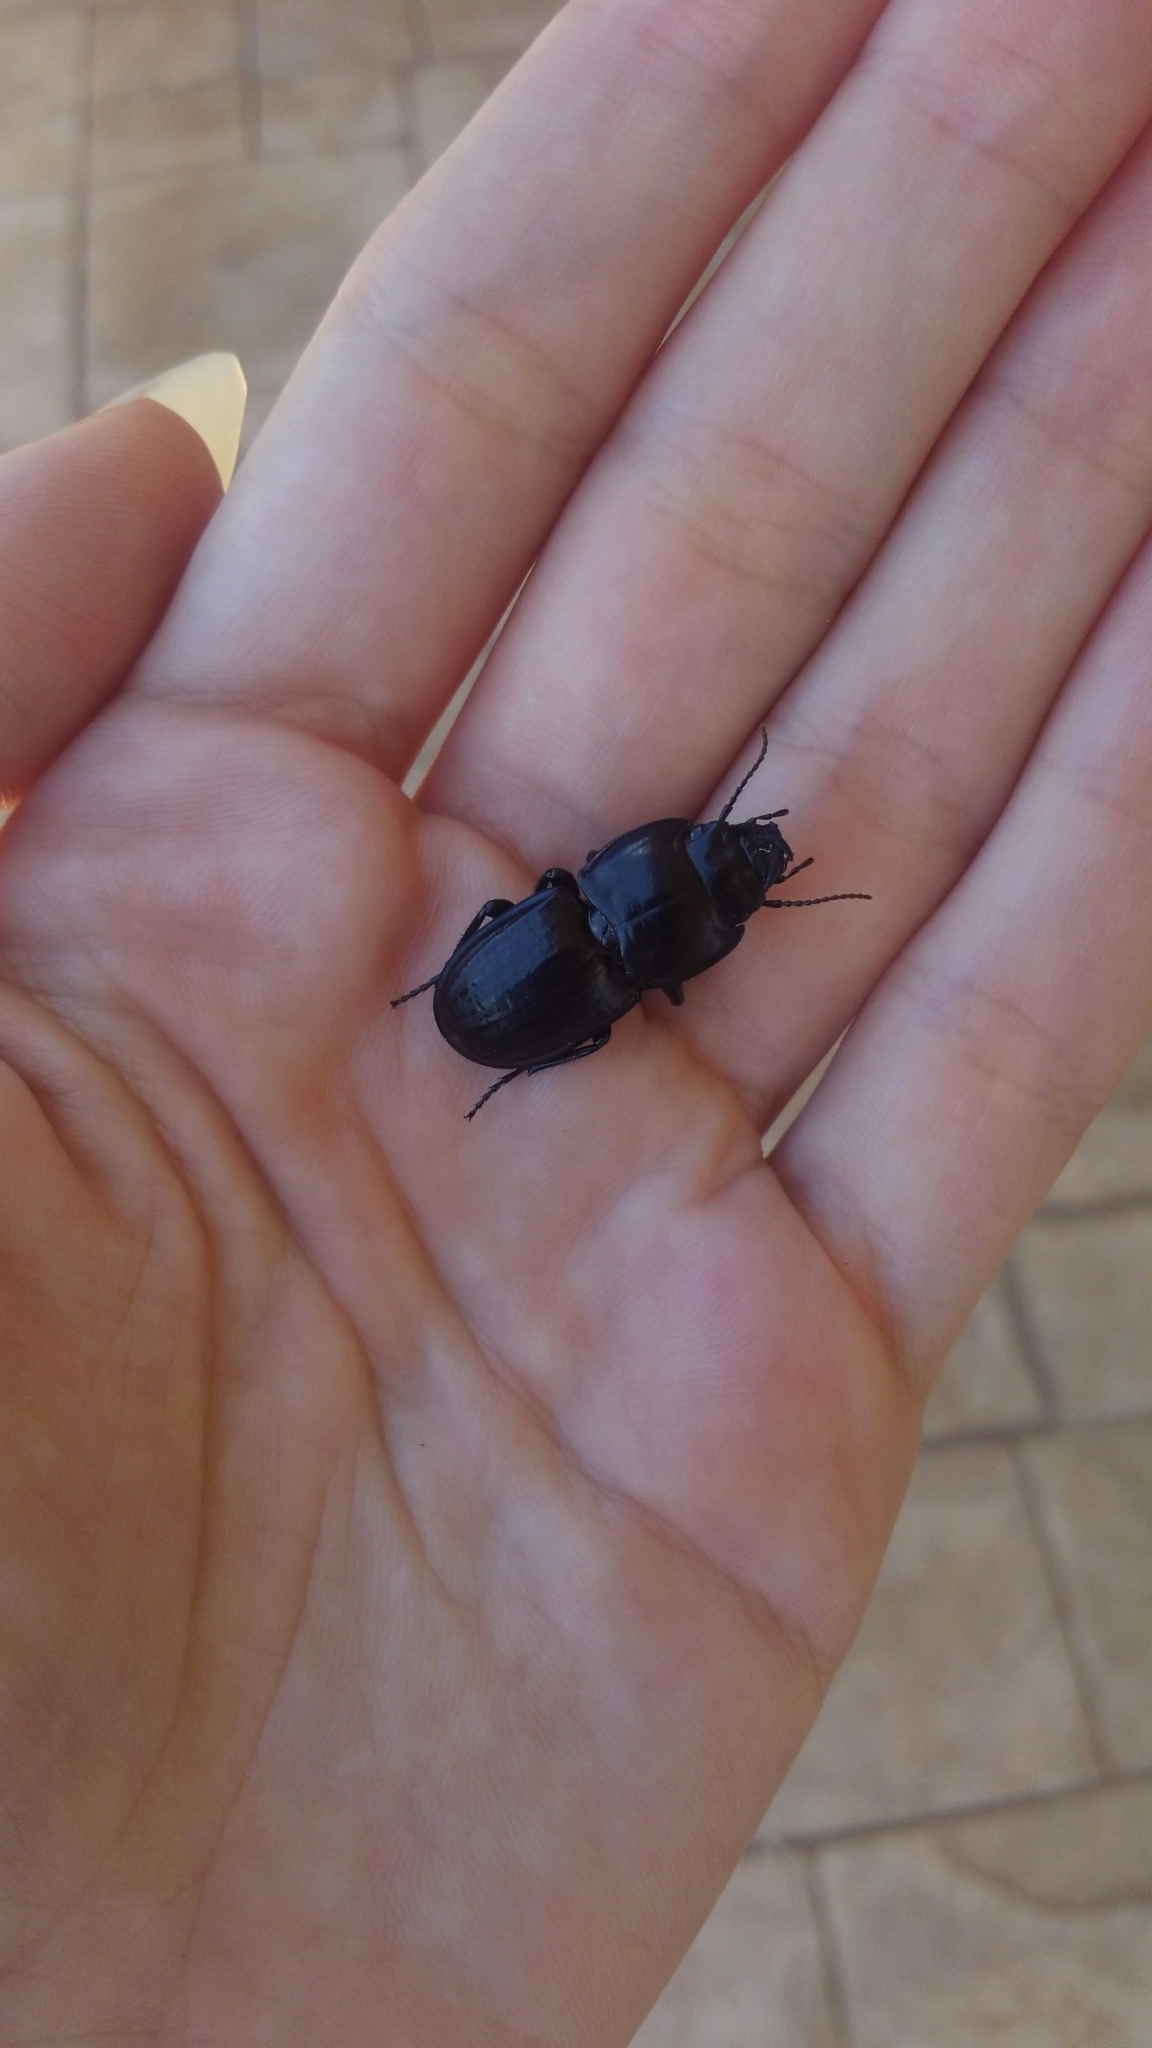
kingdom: Animalia
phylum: Arthropoda
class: Insecta
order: Coleoptera
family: Carabidae
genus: Pasimachus
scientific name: Pasimachus sublaevis
